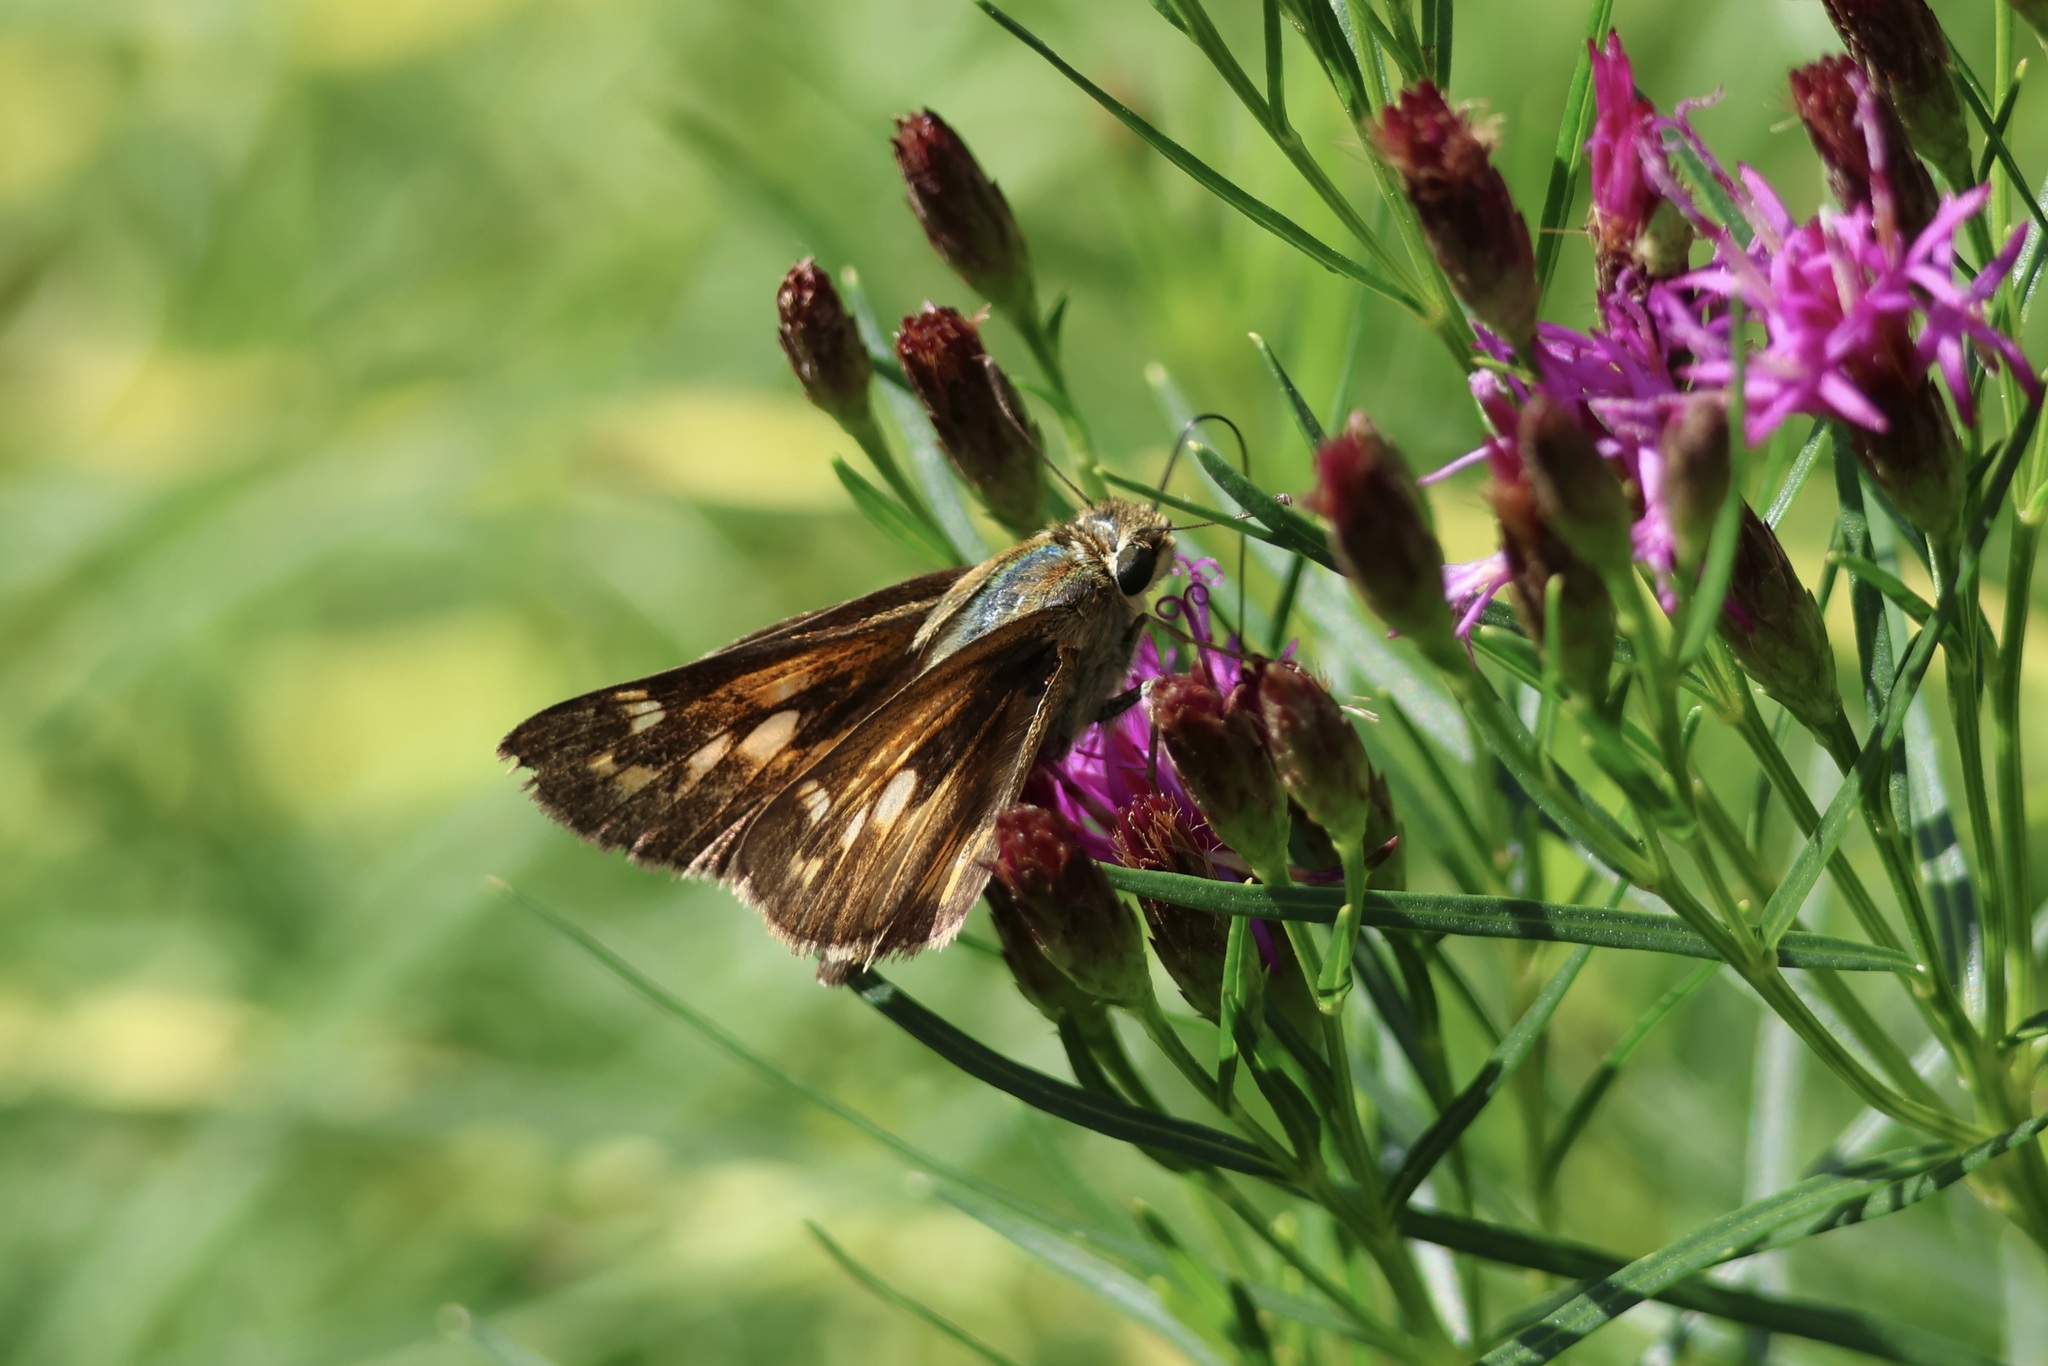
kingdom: Animalia
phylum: Arthropoda
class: Insecta
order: Lepidoptera
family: Hesperiidae
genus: Atalopedes
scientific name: Atalopedes
